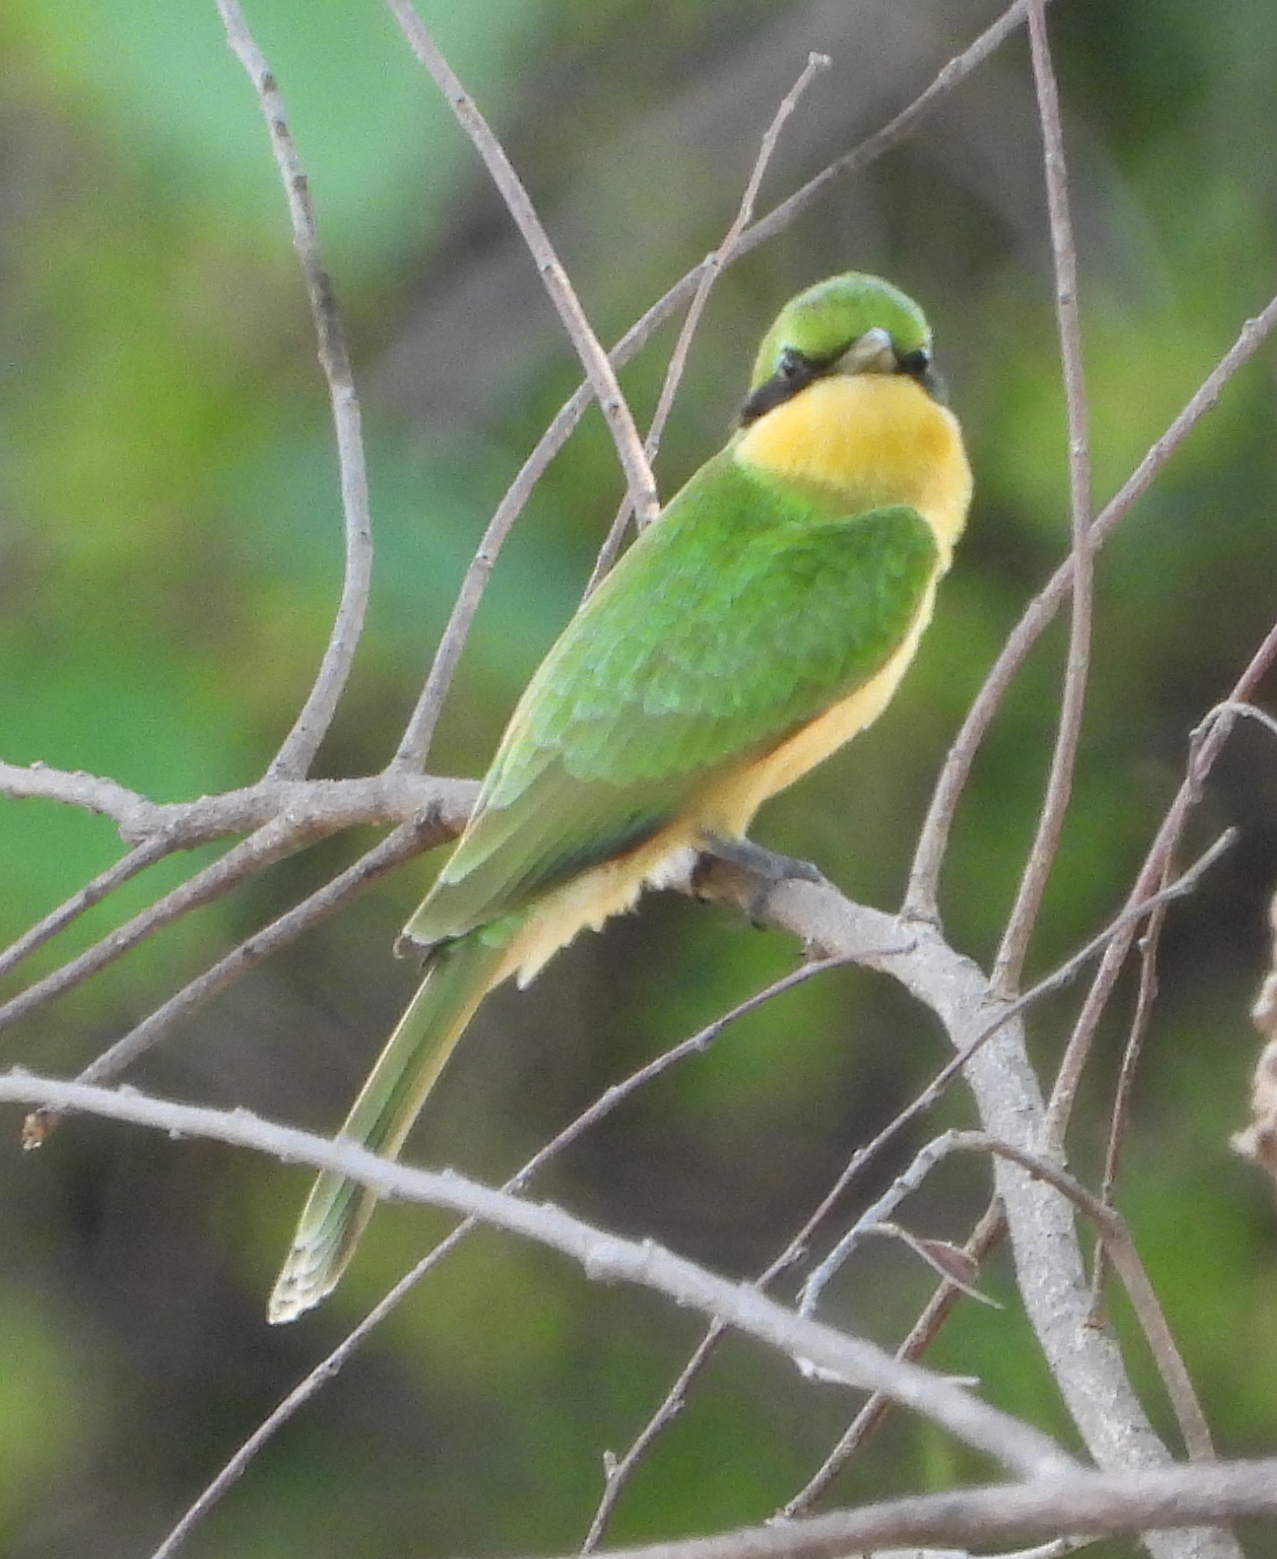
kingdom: Animalia
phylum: Chordata
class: Aves
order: Coraciiformes
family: Meropidae
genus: Merops
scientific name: Merops pusillus
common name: Little bee-eater
